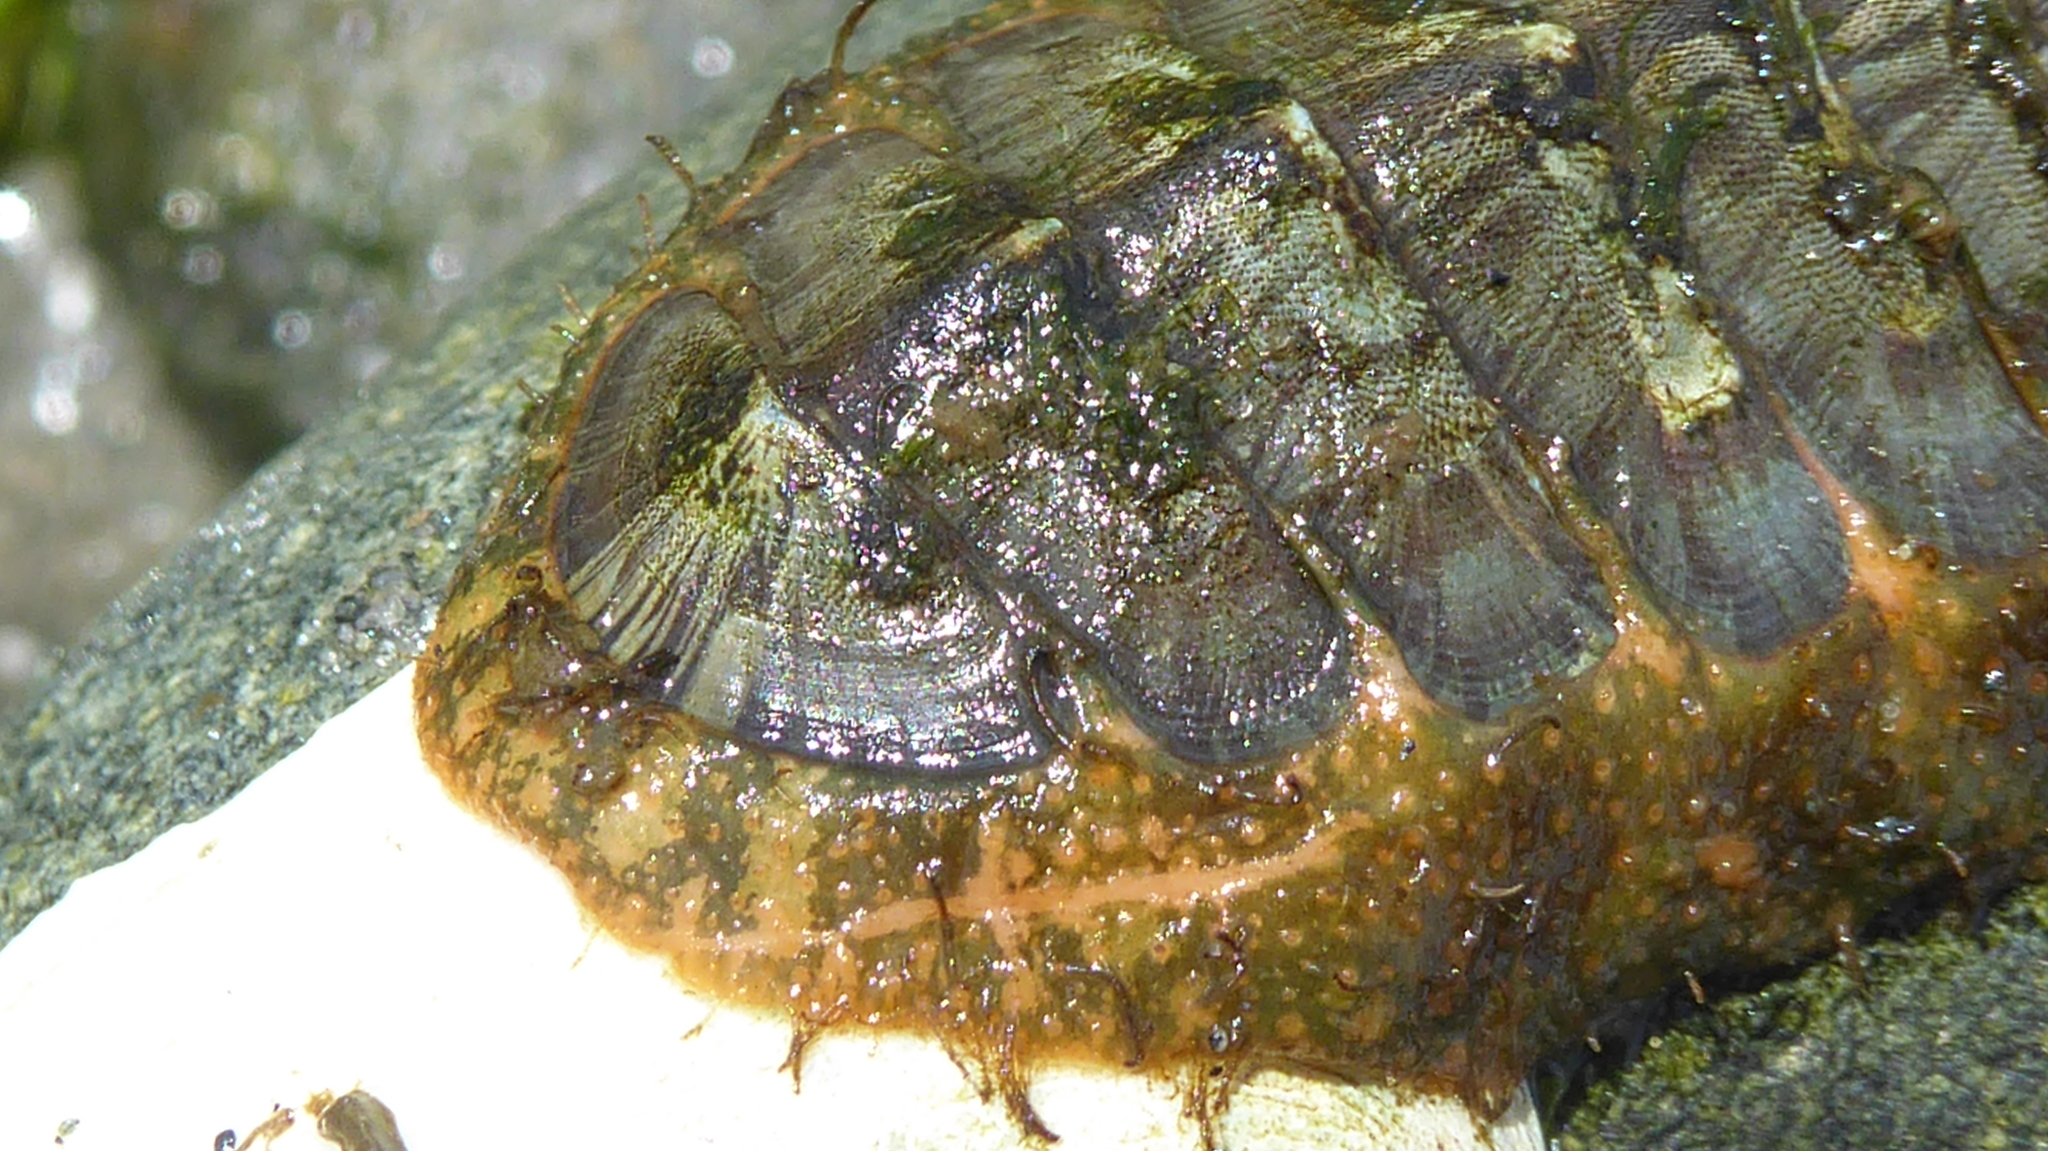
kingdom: Animalia
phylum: Mollusca
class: Polyplacophora
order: Chitonida
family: Mopaliidae
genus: Mopalia
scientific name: Mopalia lignosa
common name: Woody chiton
